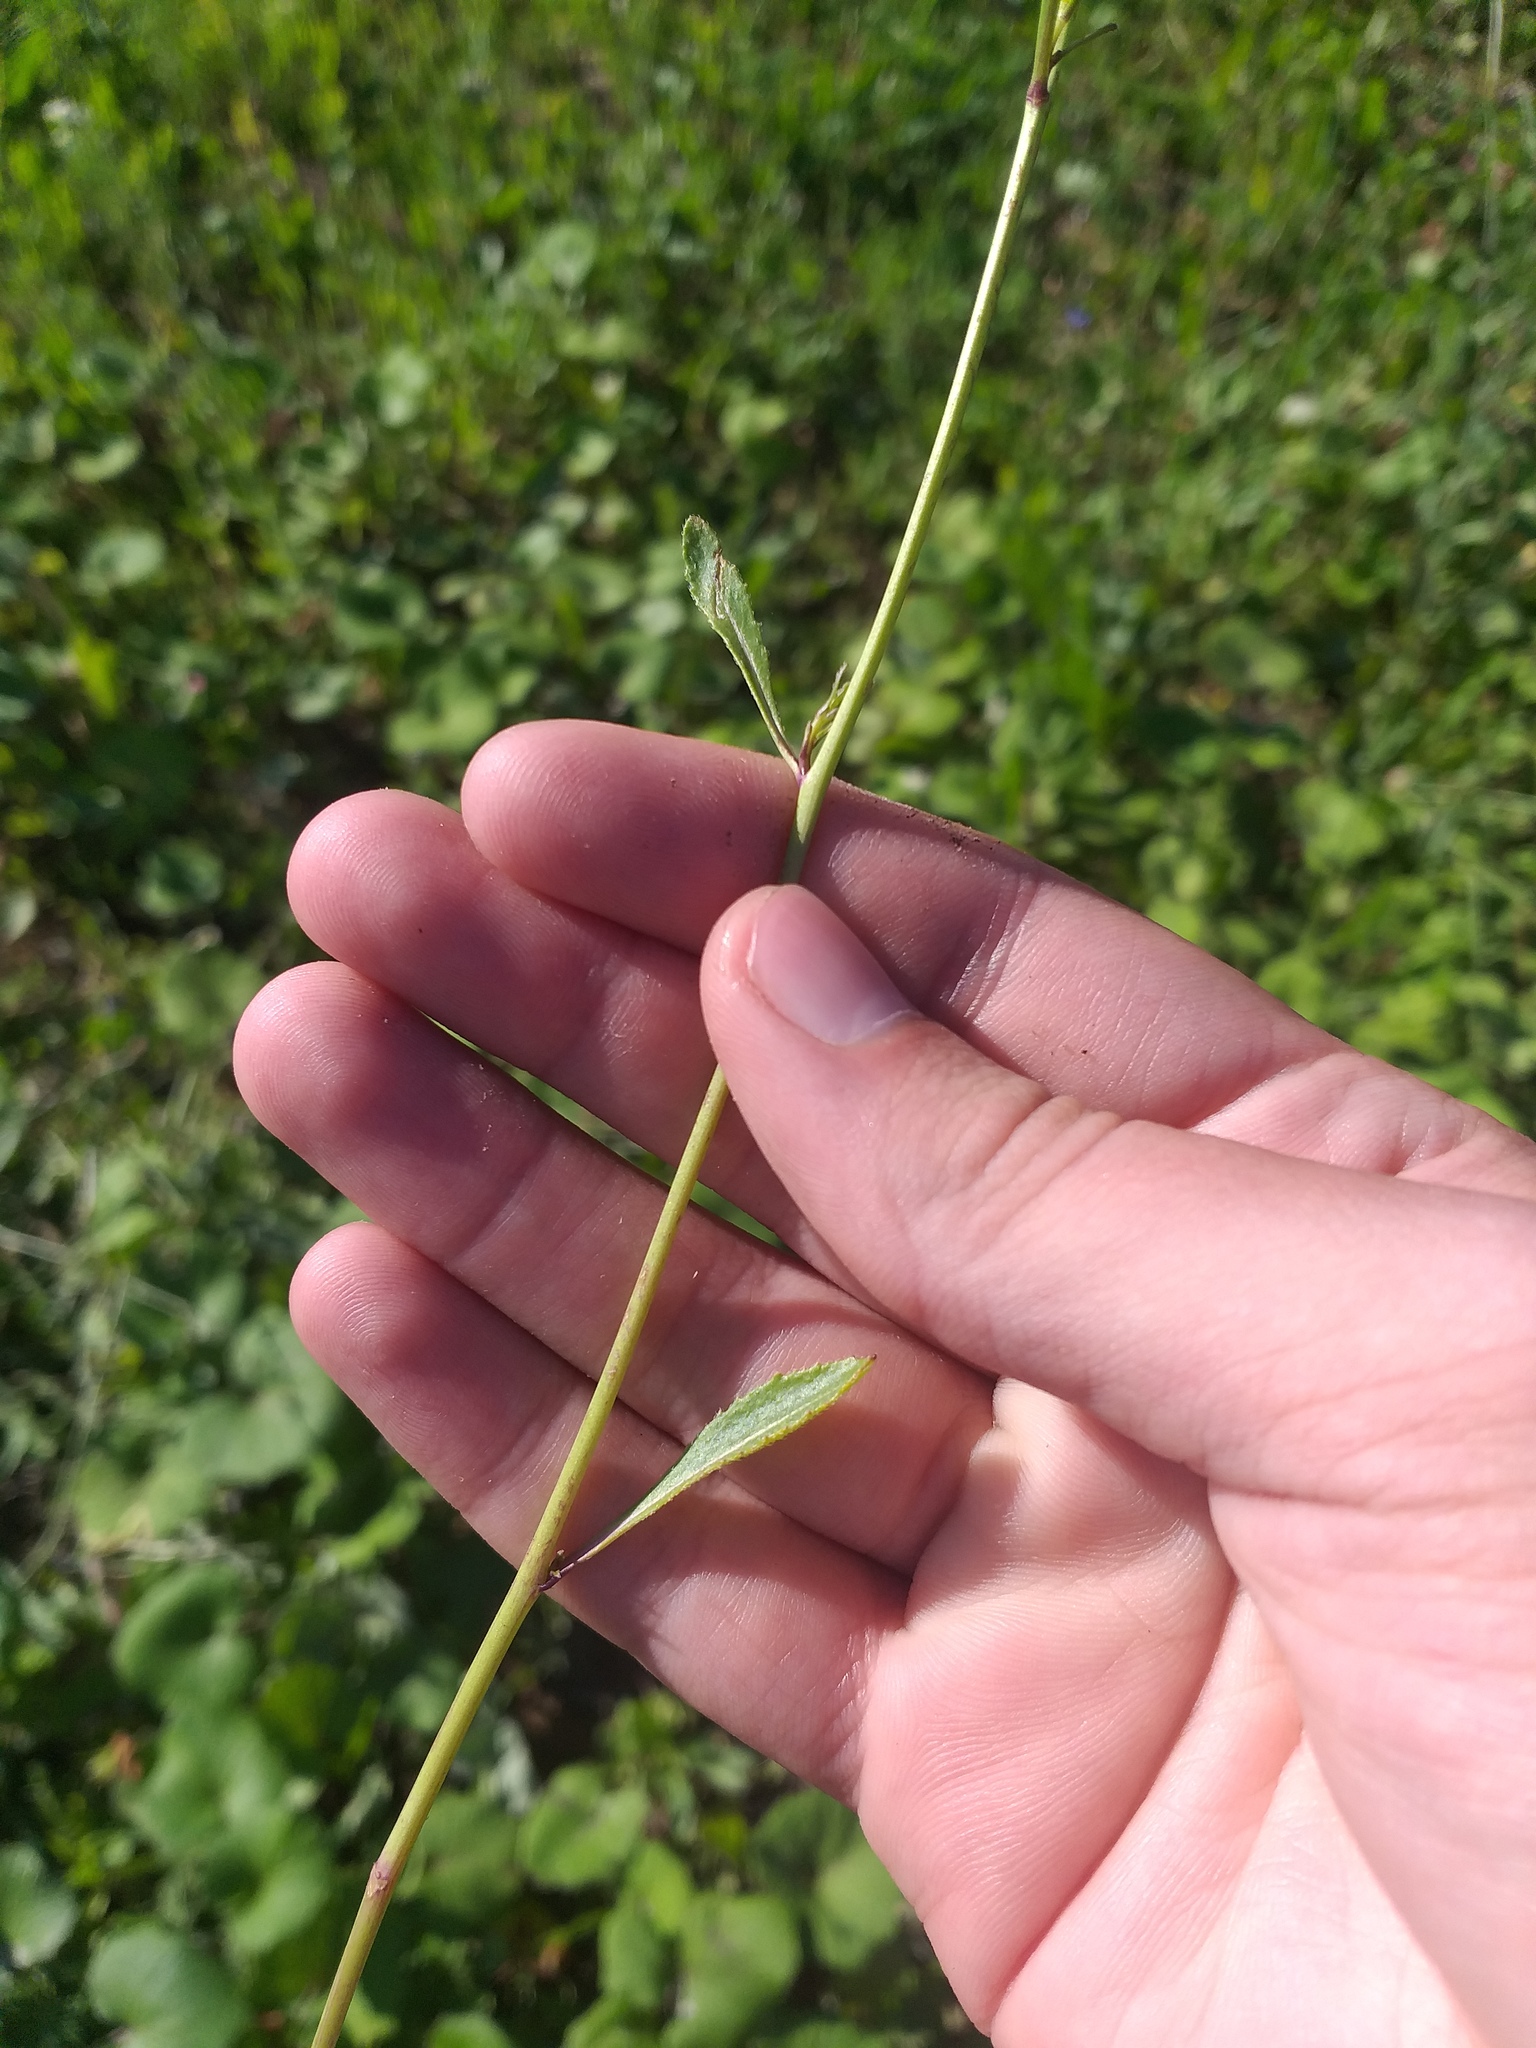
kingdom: Plantae
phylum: Tracheophyta
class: Magnoliopsida
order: Brassicales
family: Brassicaceae
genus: Sisymbrium
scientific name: Sisymbrium polymorphum
